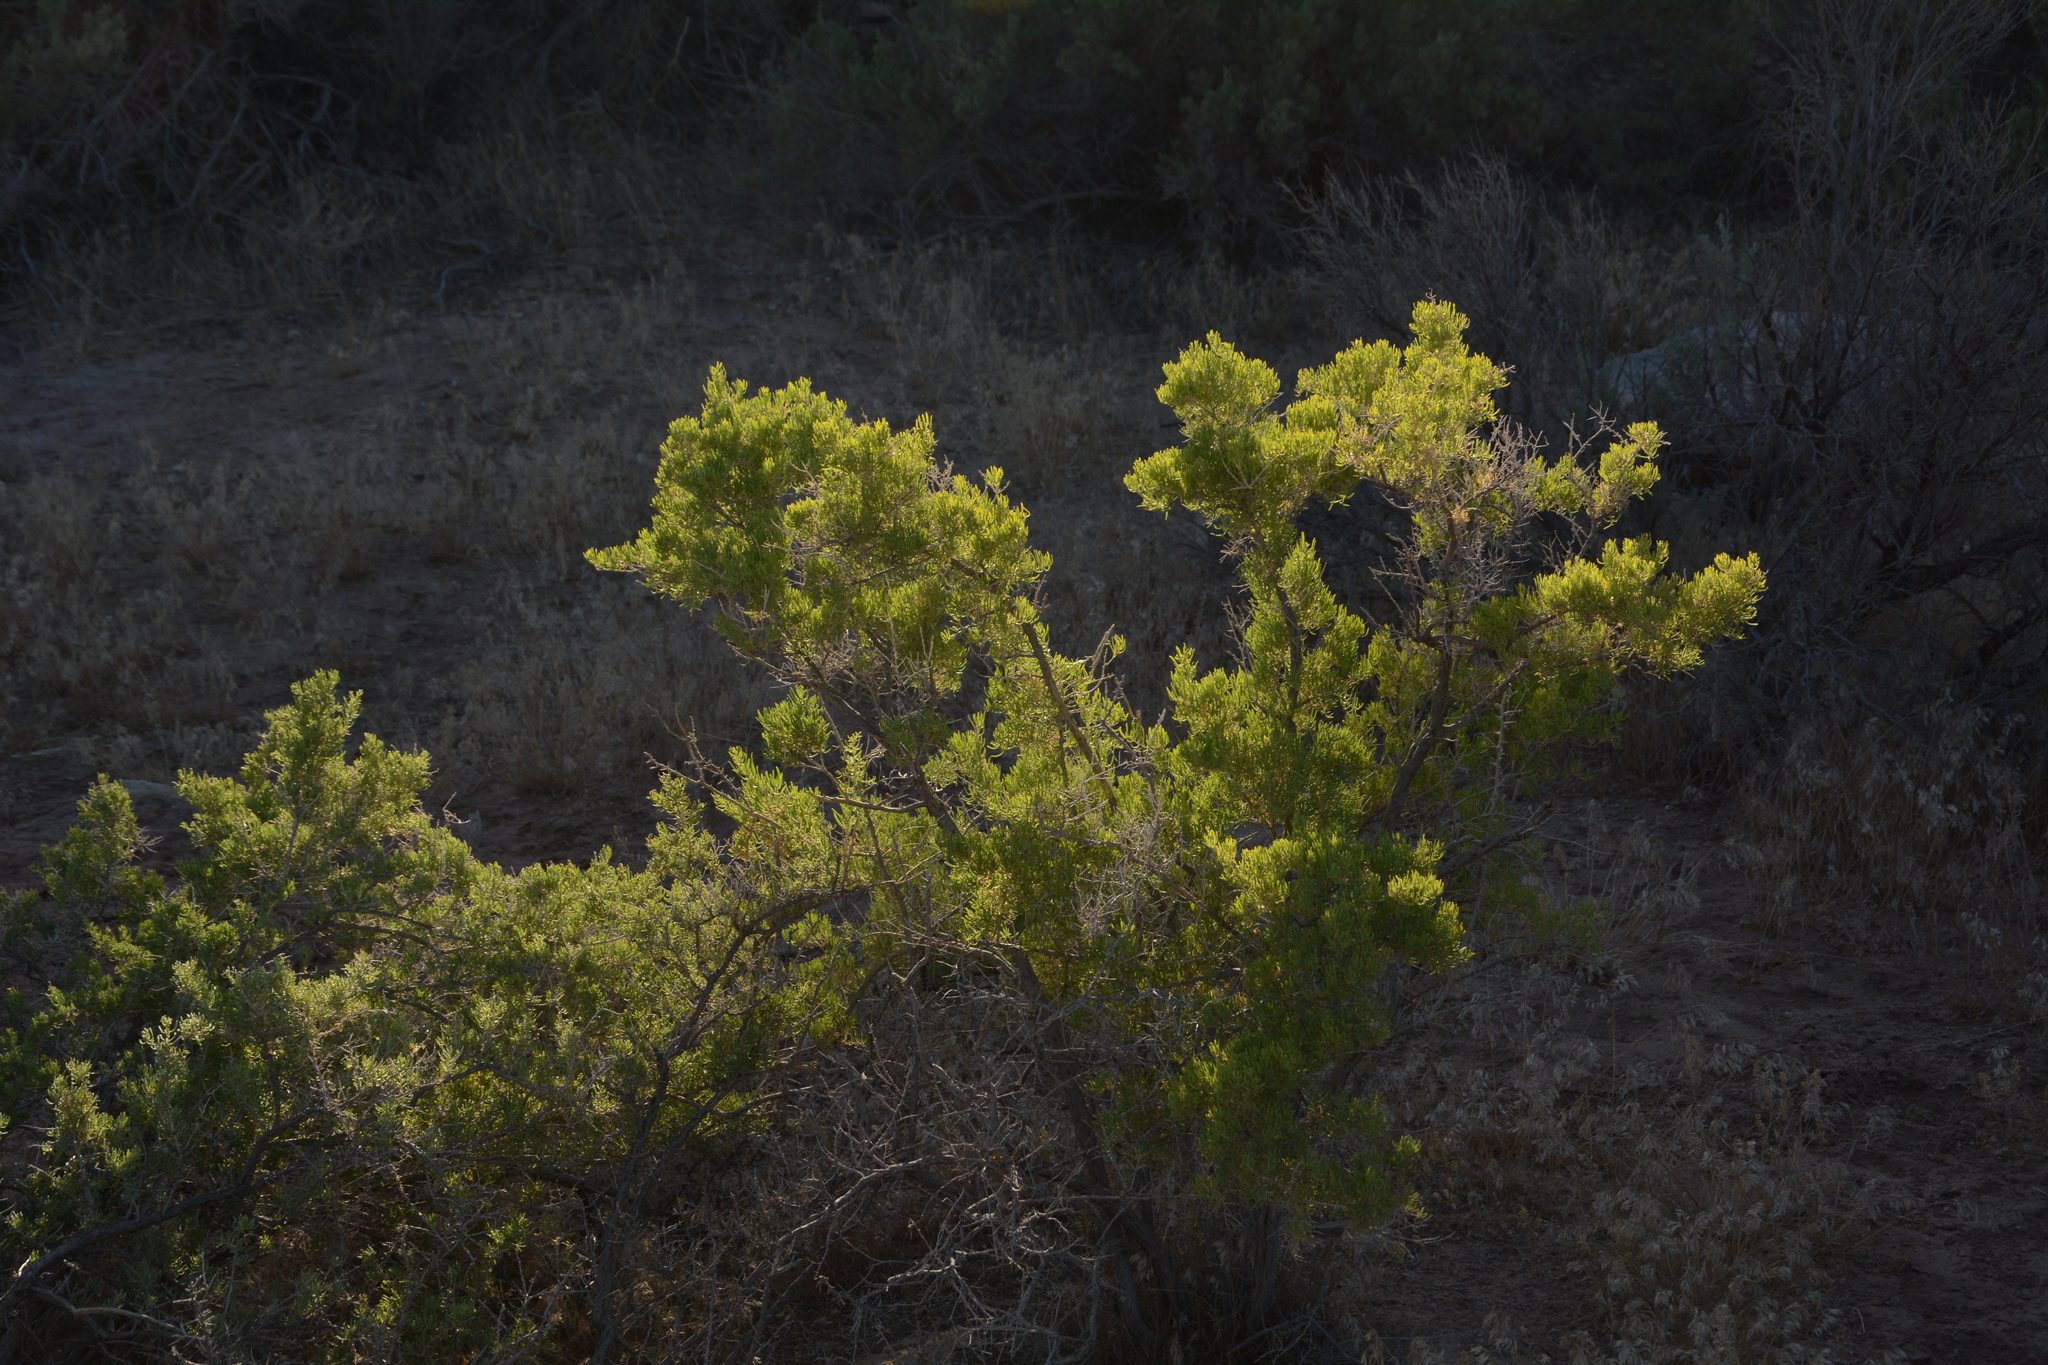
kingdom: Plantae
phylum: Tracheophyta
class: Pinopsida
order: Pinales
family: Cupressaceae
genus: Juniperus
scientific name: Juniperus osteosperma
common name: Utah juniper
